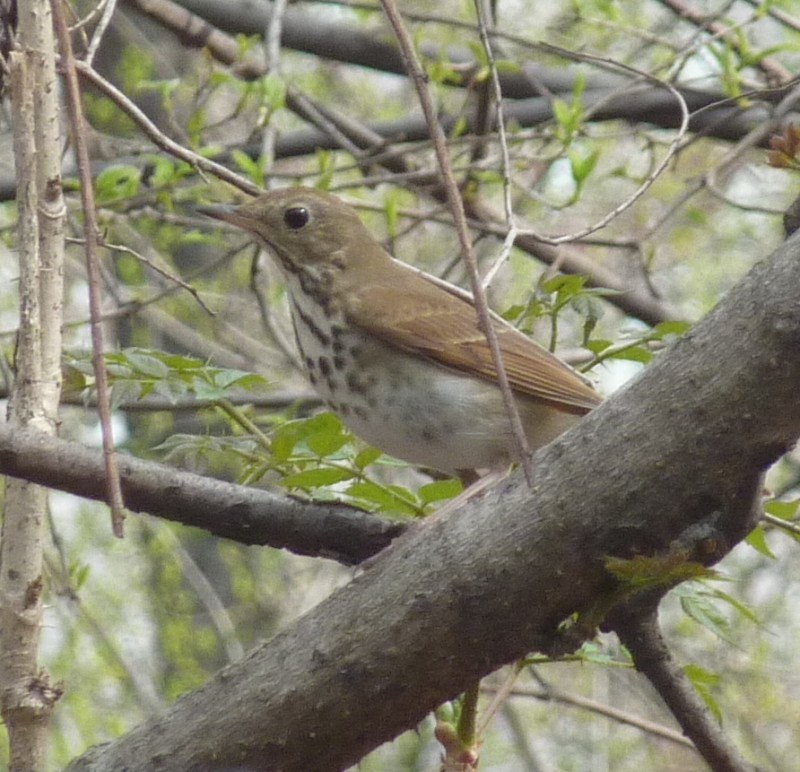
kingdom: Animalia
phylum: Chordata
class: Aves
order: Passeriformes
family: Turdidae
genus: Catharus
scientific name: Catharus guttatus
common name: Hermit thrush
